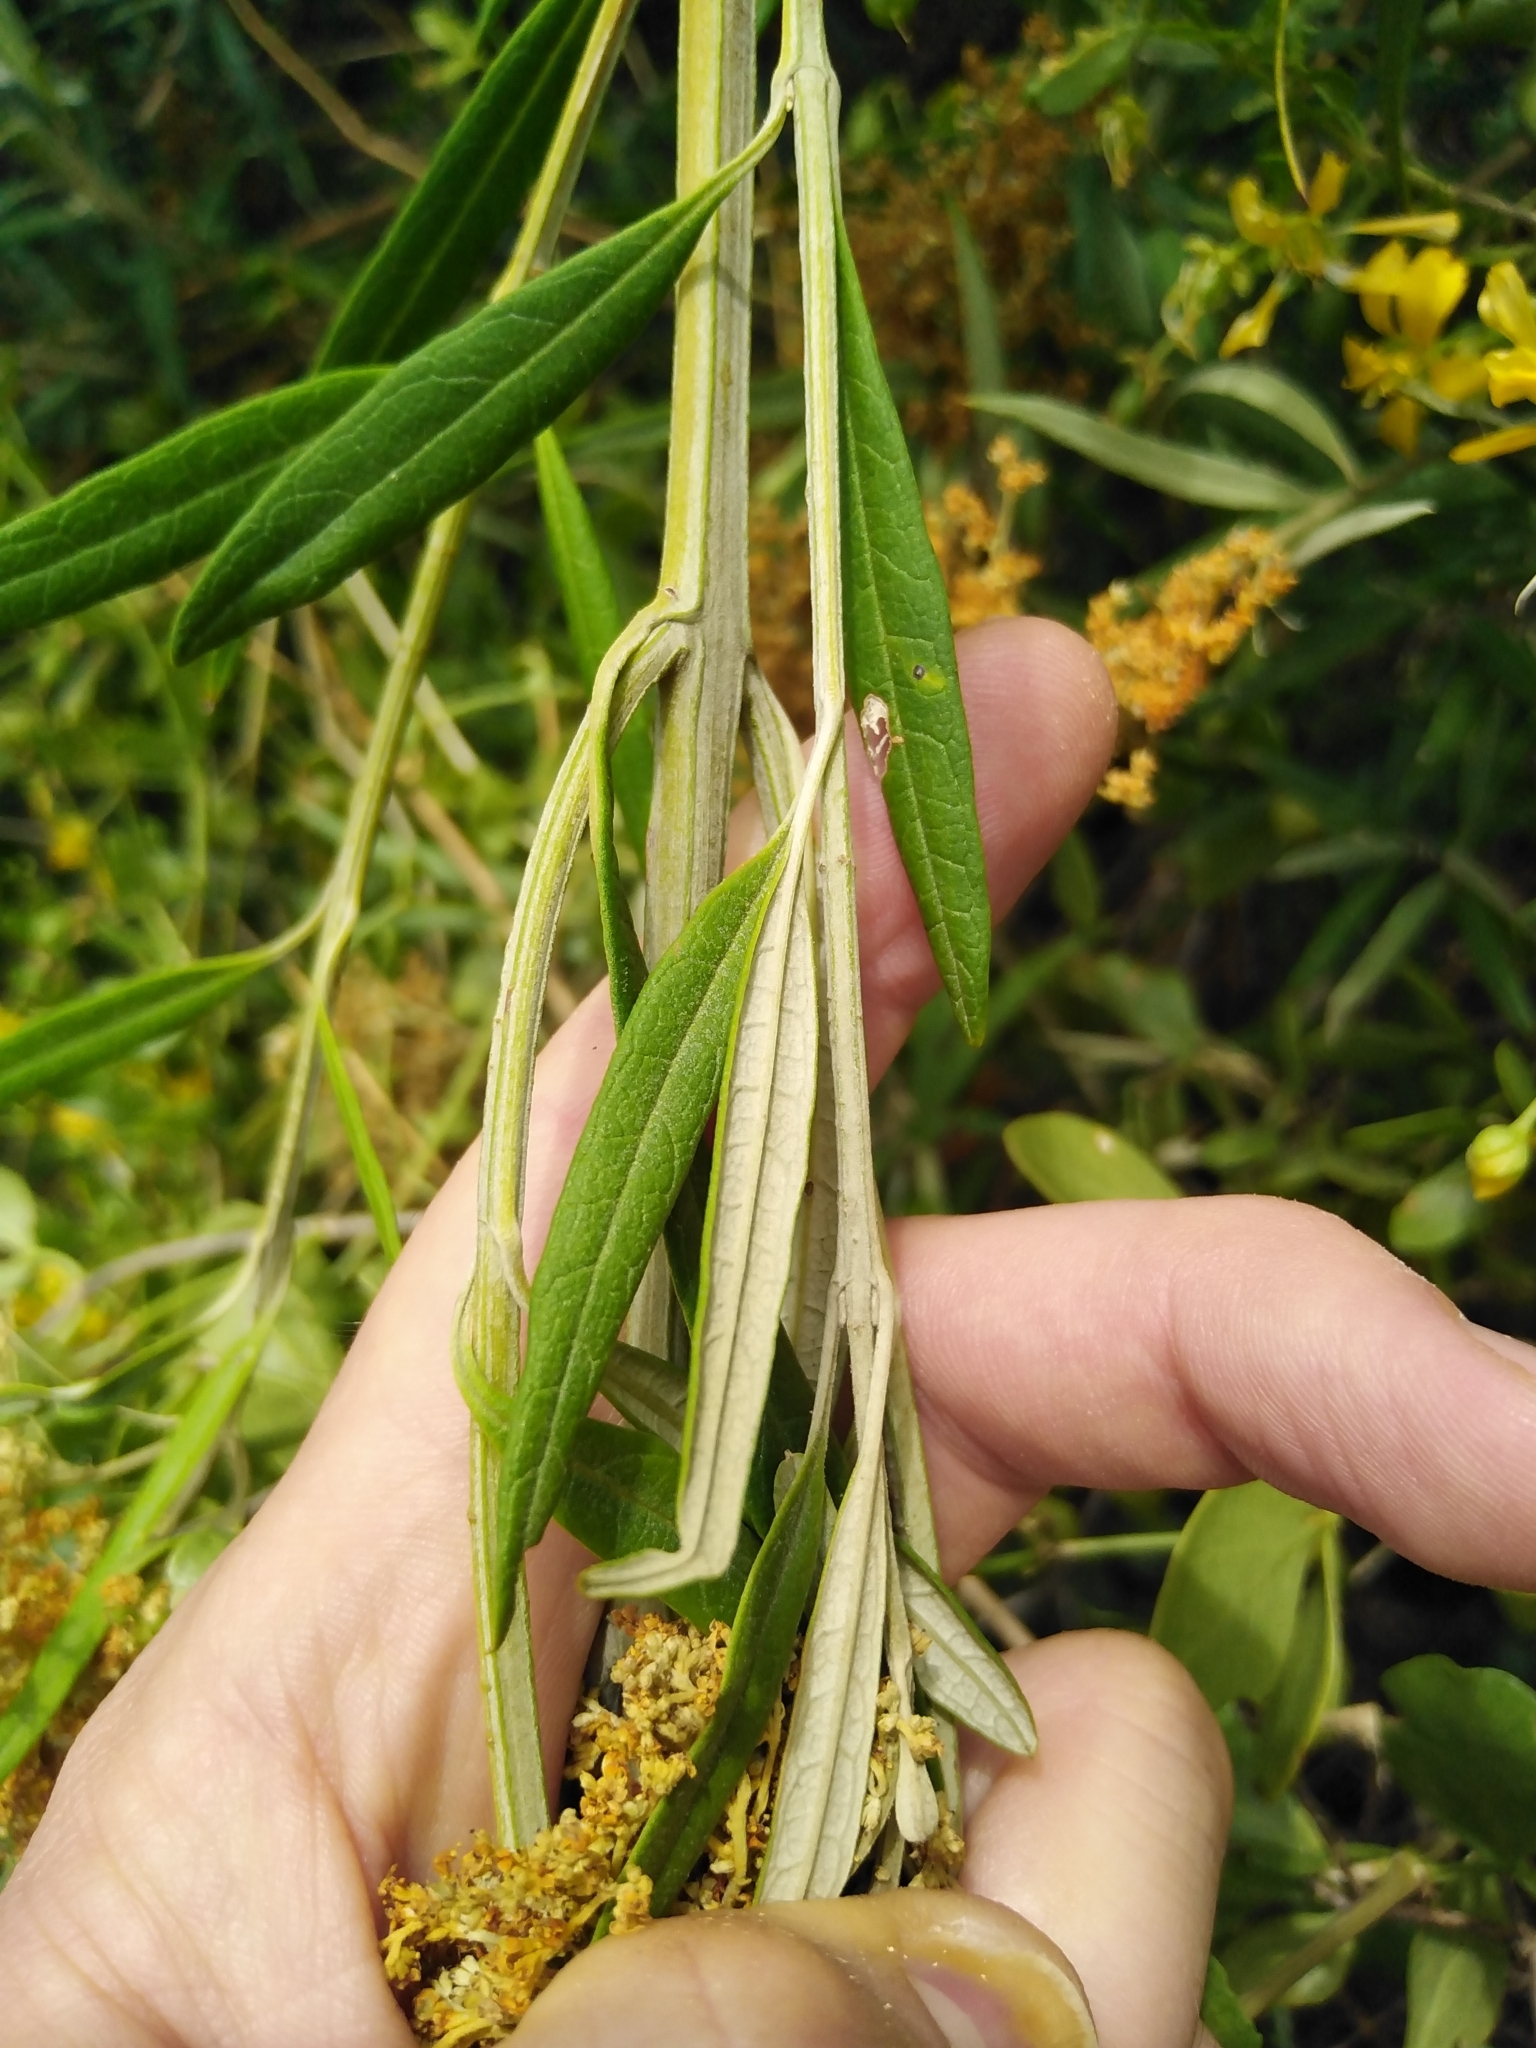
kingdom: Plantae
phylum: Tracheophyta
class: Magnoliopsida
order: Lamiales
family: Scrophulariaceae
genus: Buddleja
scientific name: Buddleja saligna
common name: False olive
